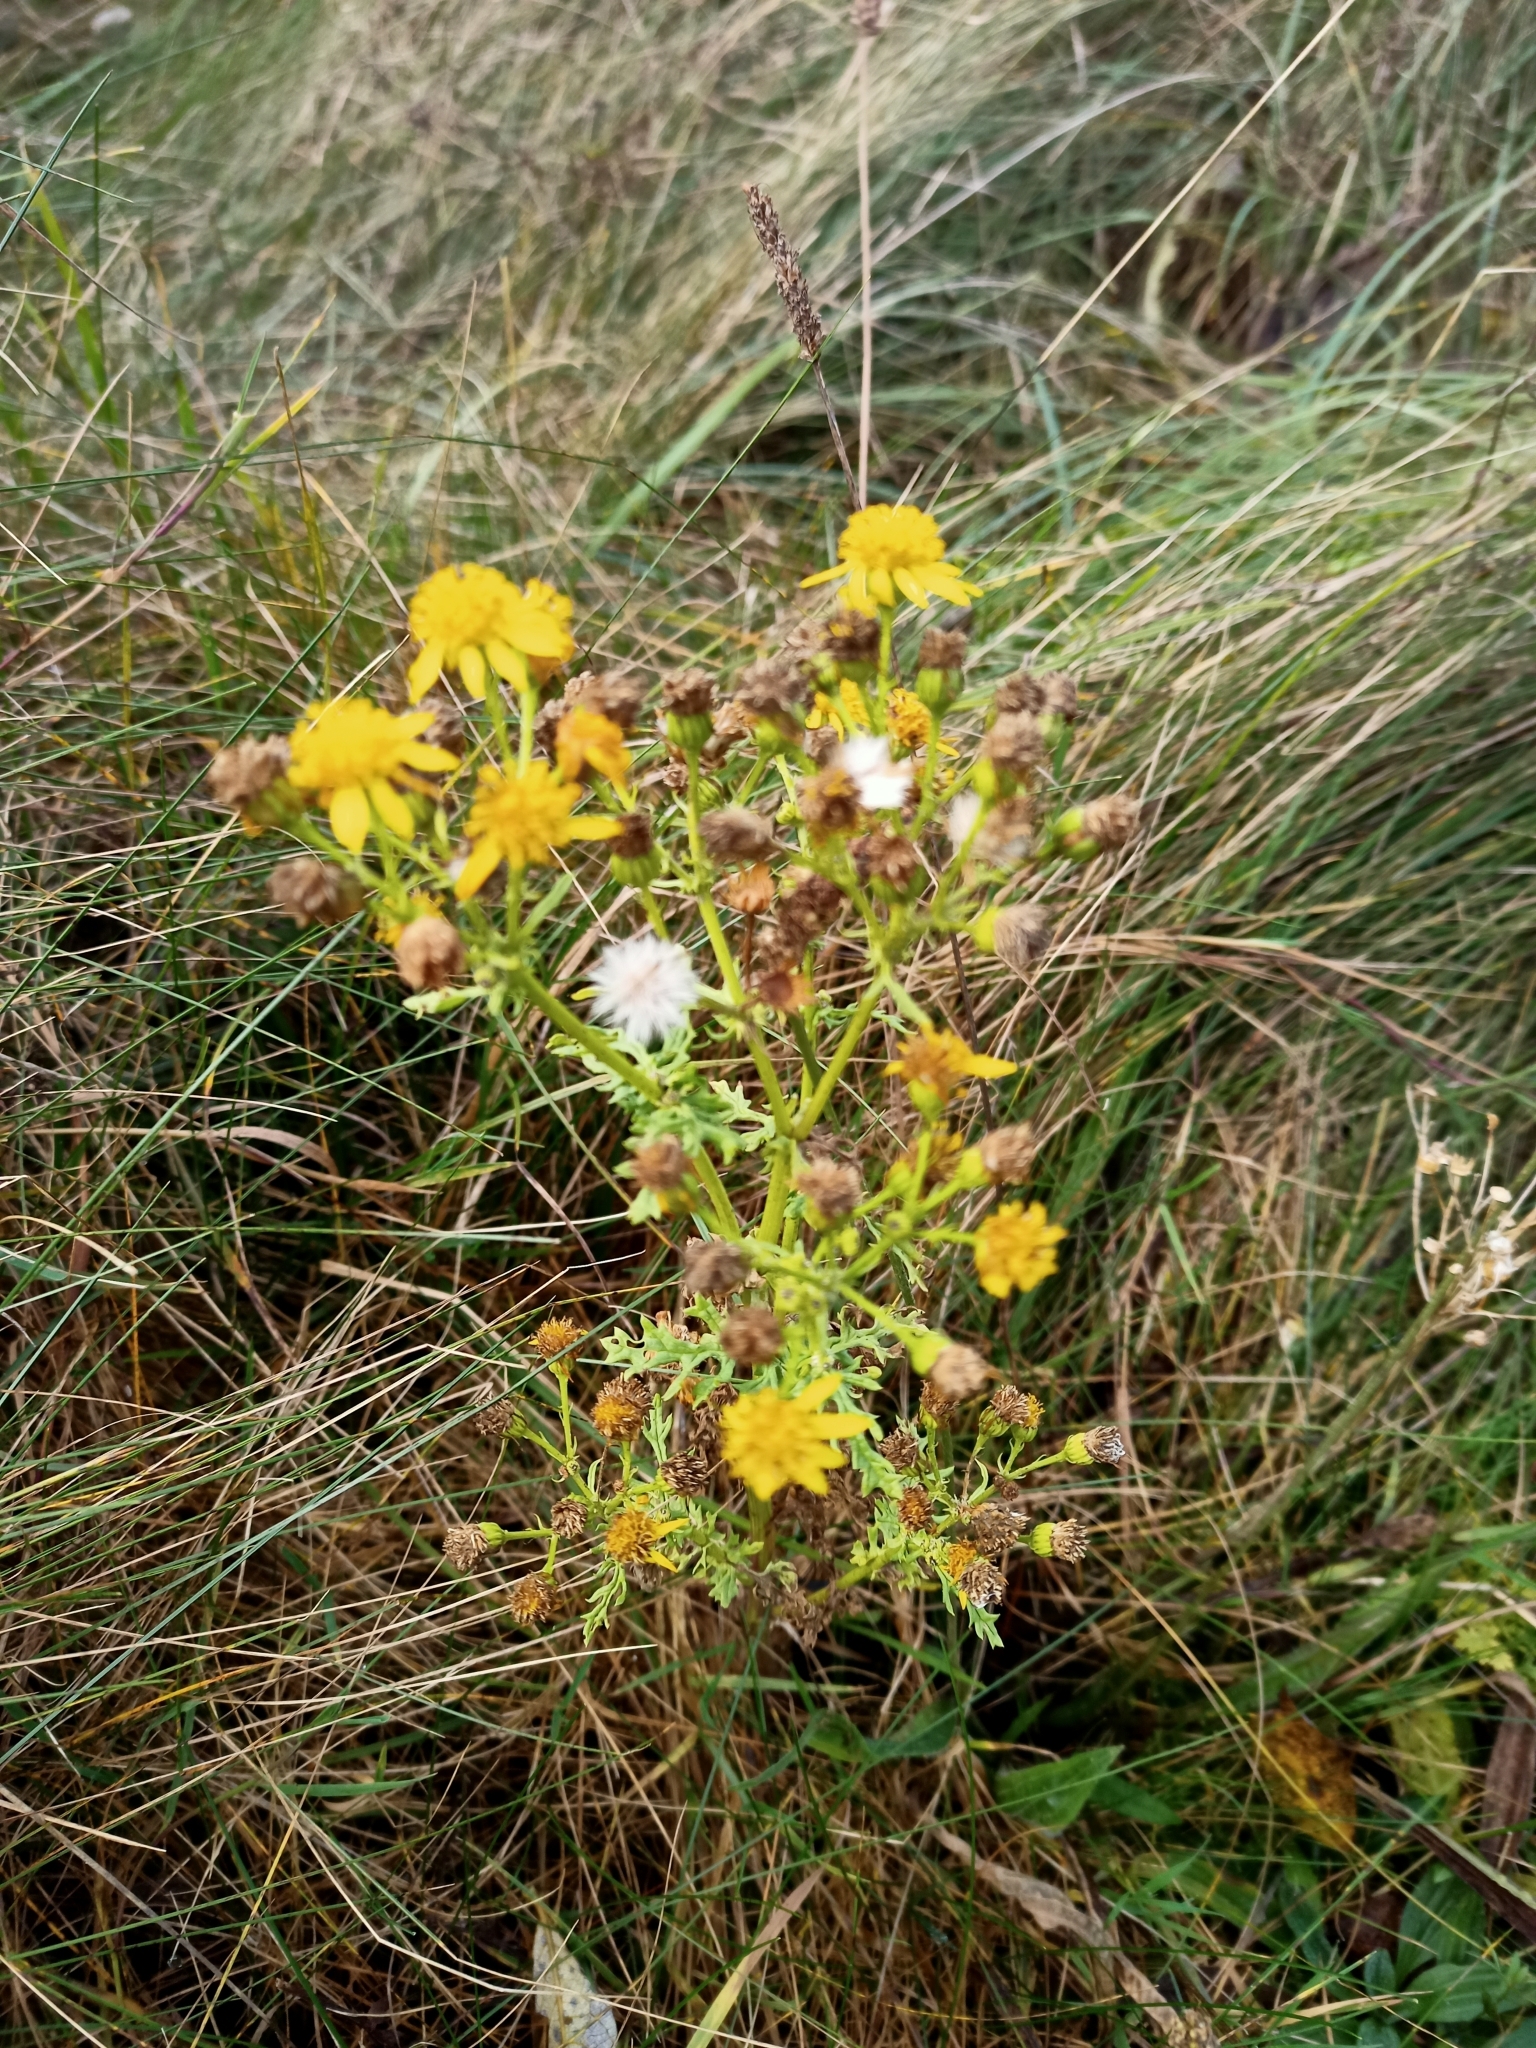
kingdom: Plantae
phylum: Tracheophyta
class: Magnoliopsida
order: Asterales
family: Asteraceae
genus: Jacobaea
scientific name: Jacobaea vulgaris
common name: Stinking willie
